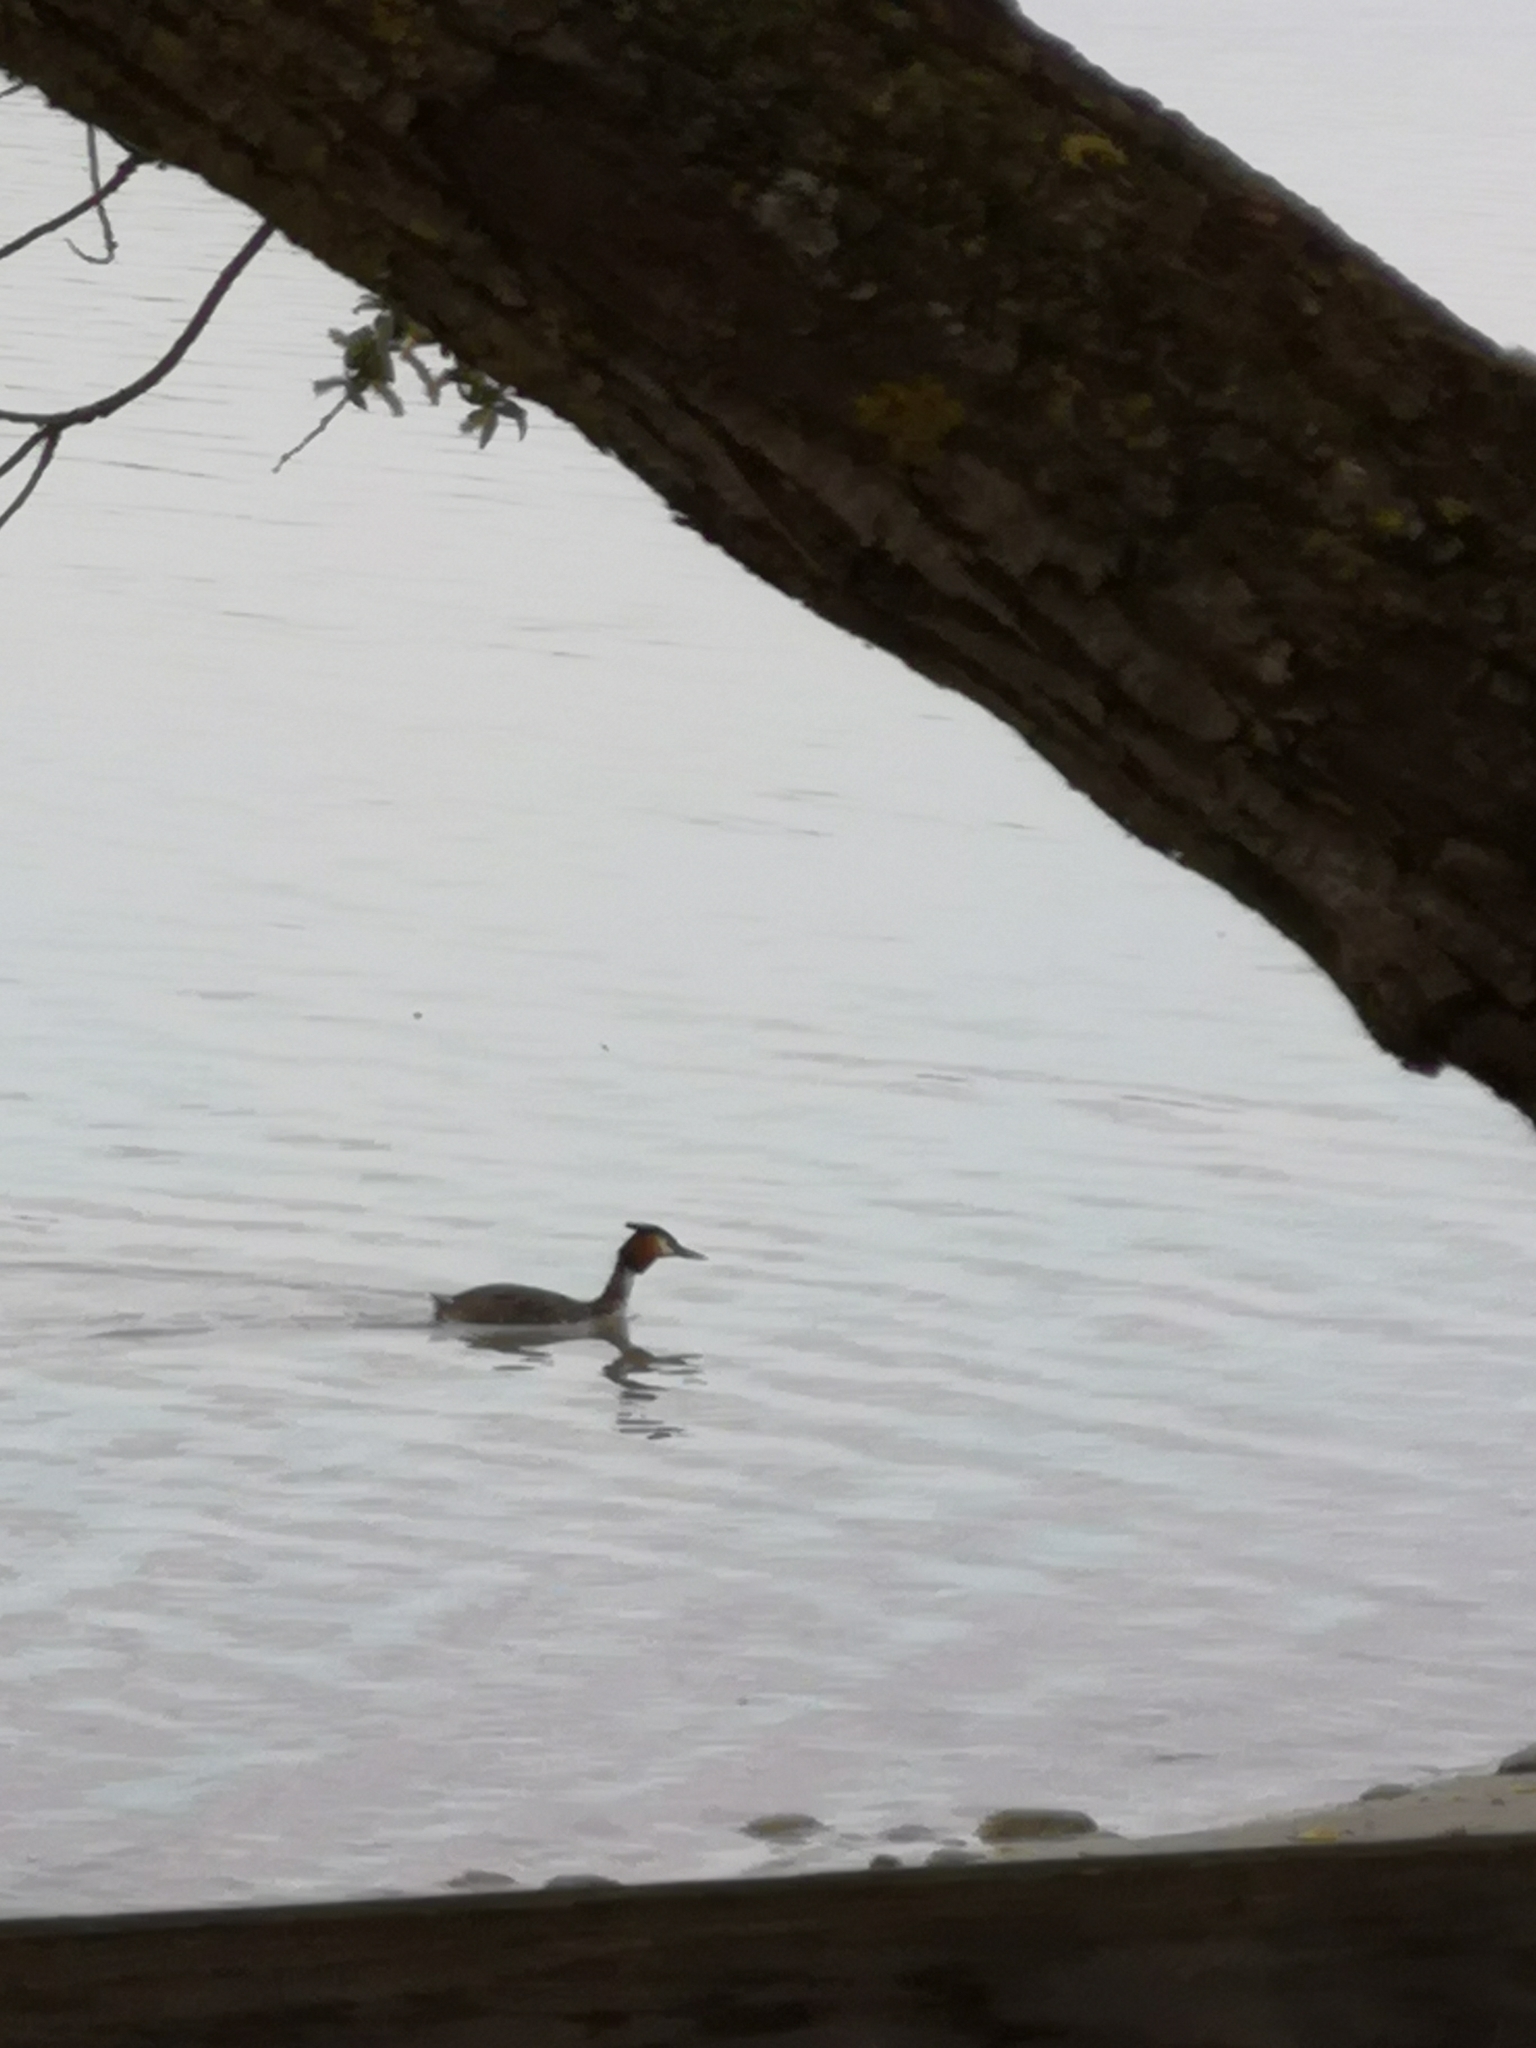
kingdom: Animalia
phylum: Chordata
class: Aves
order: Podicipediformes
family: Podicipedidae
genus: Podiceps
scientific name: Podiceps cristatus
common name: Great crested grebe
